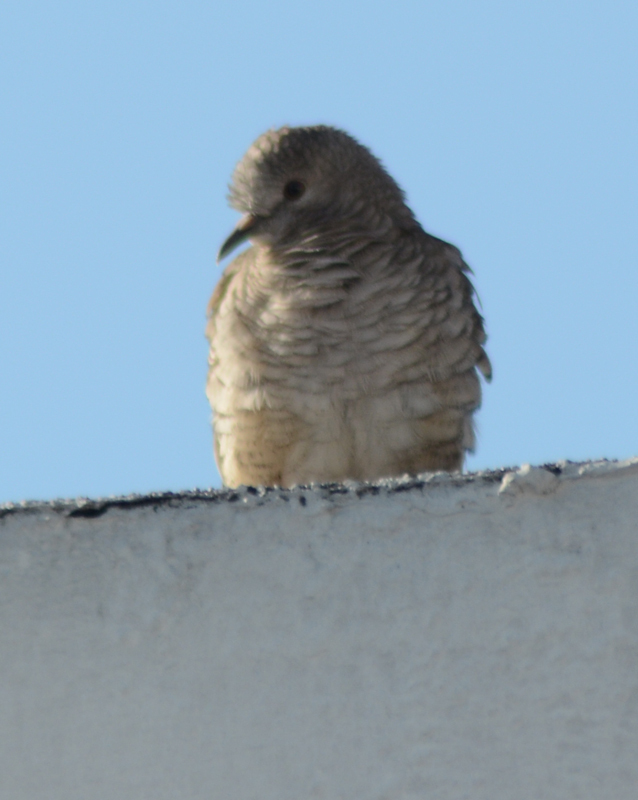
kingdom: Animalia
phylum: Chordata
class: Aves
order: Columbiformes
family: Columbidae
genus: Columbina
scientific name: Columbina inca
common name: Inca dove
